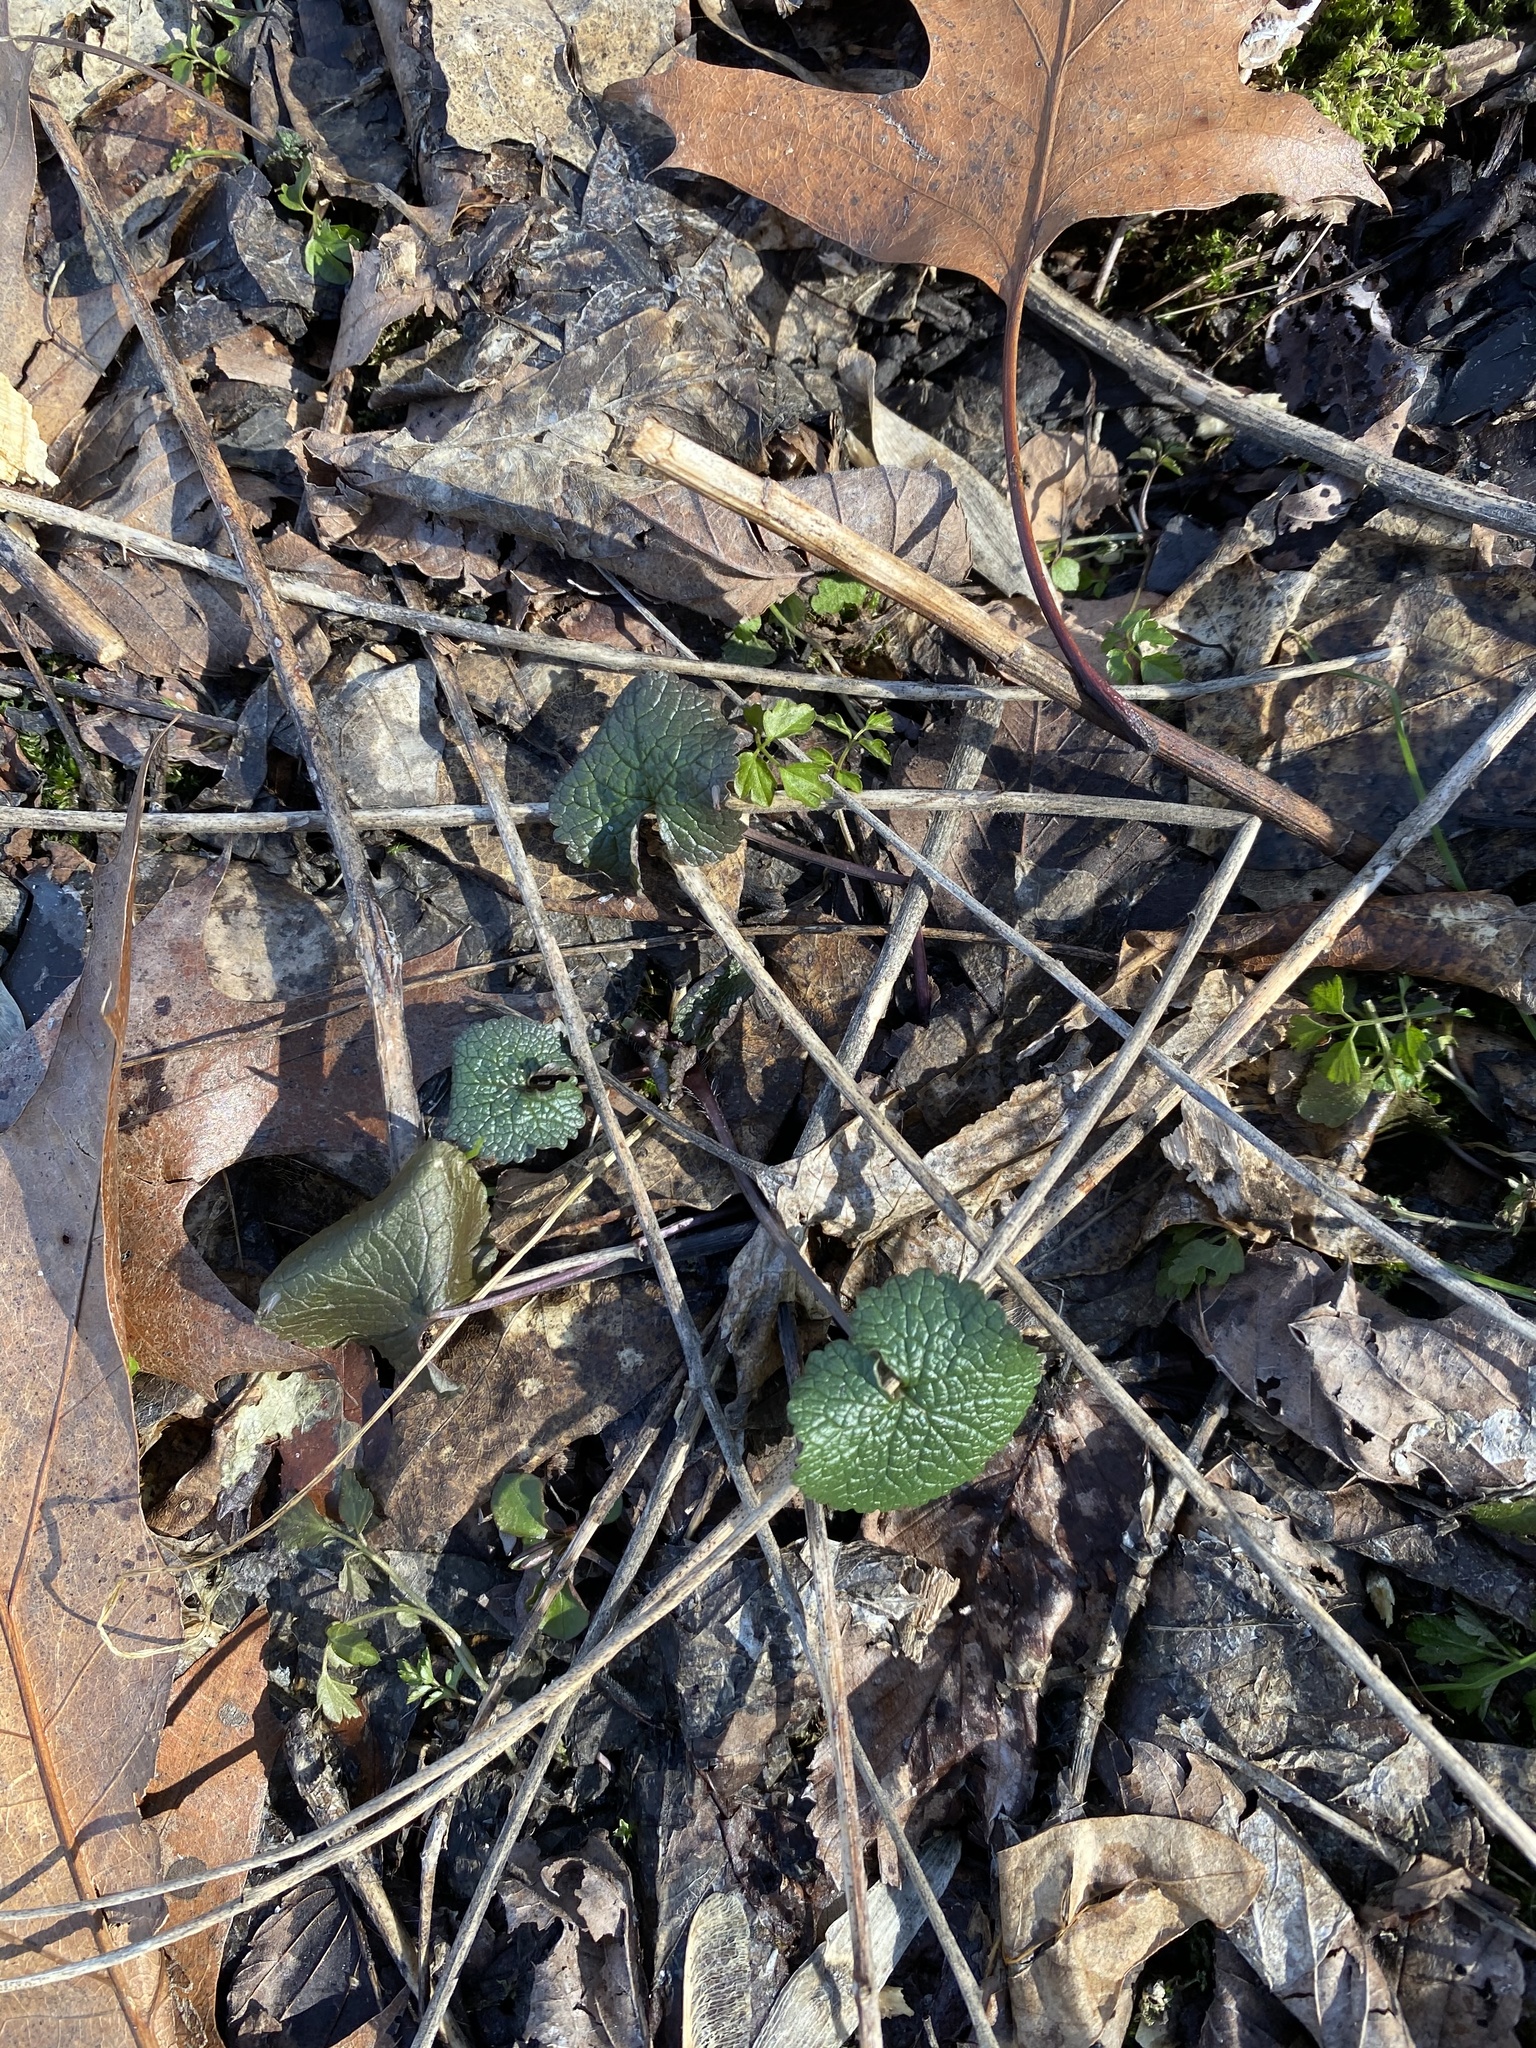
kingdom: Plantae
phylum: Tracheophyta
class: Magnoliopsida
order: Brassicales
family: Brassicaceae
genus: Alliaria
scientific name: Alliaria petiolata
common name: Garlic mustard
